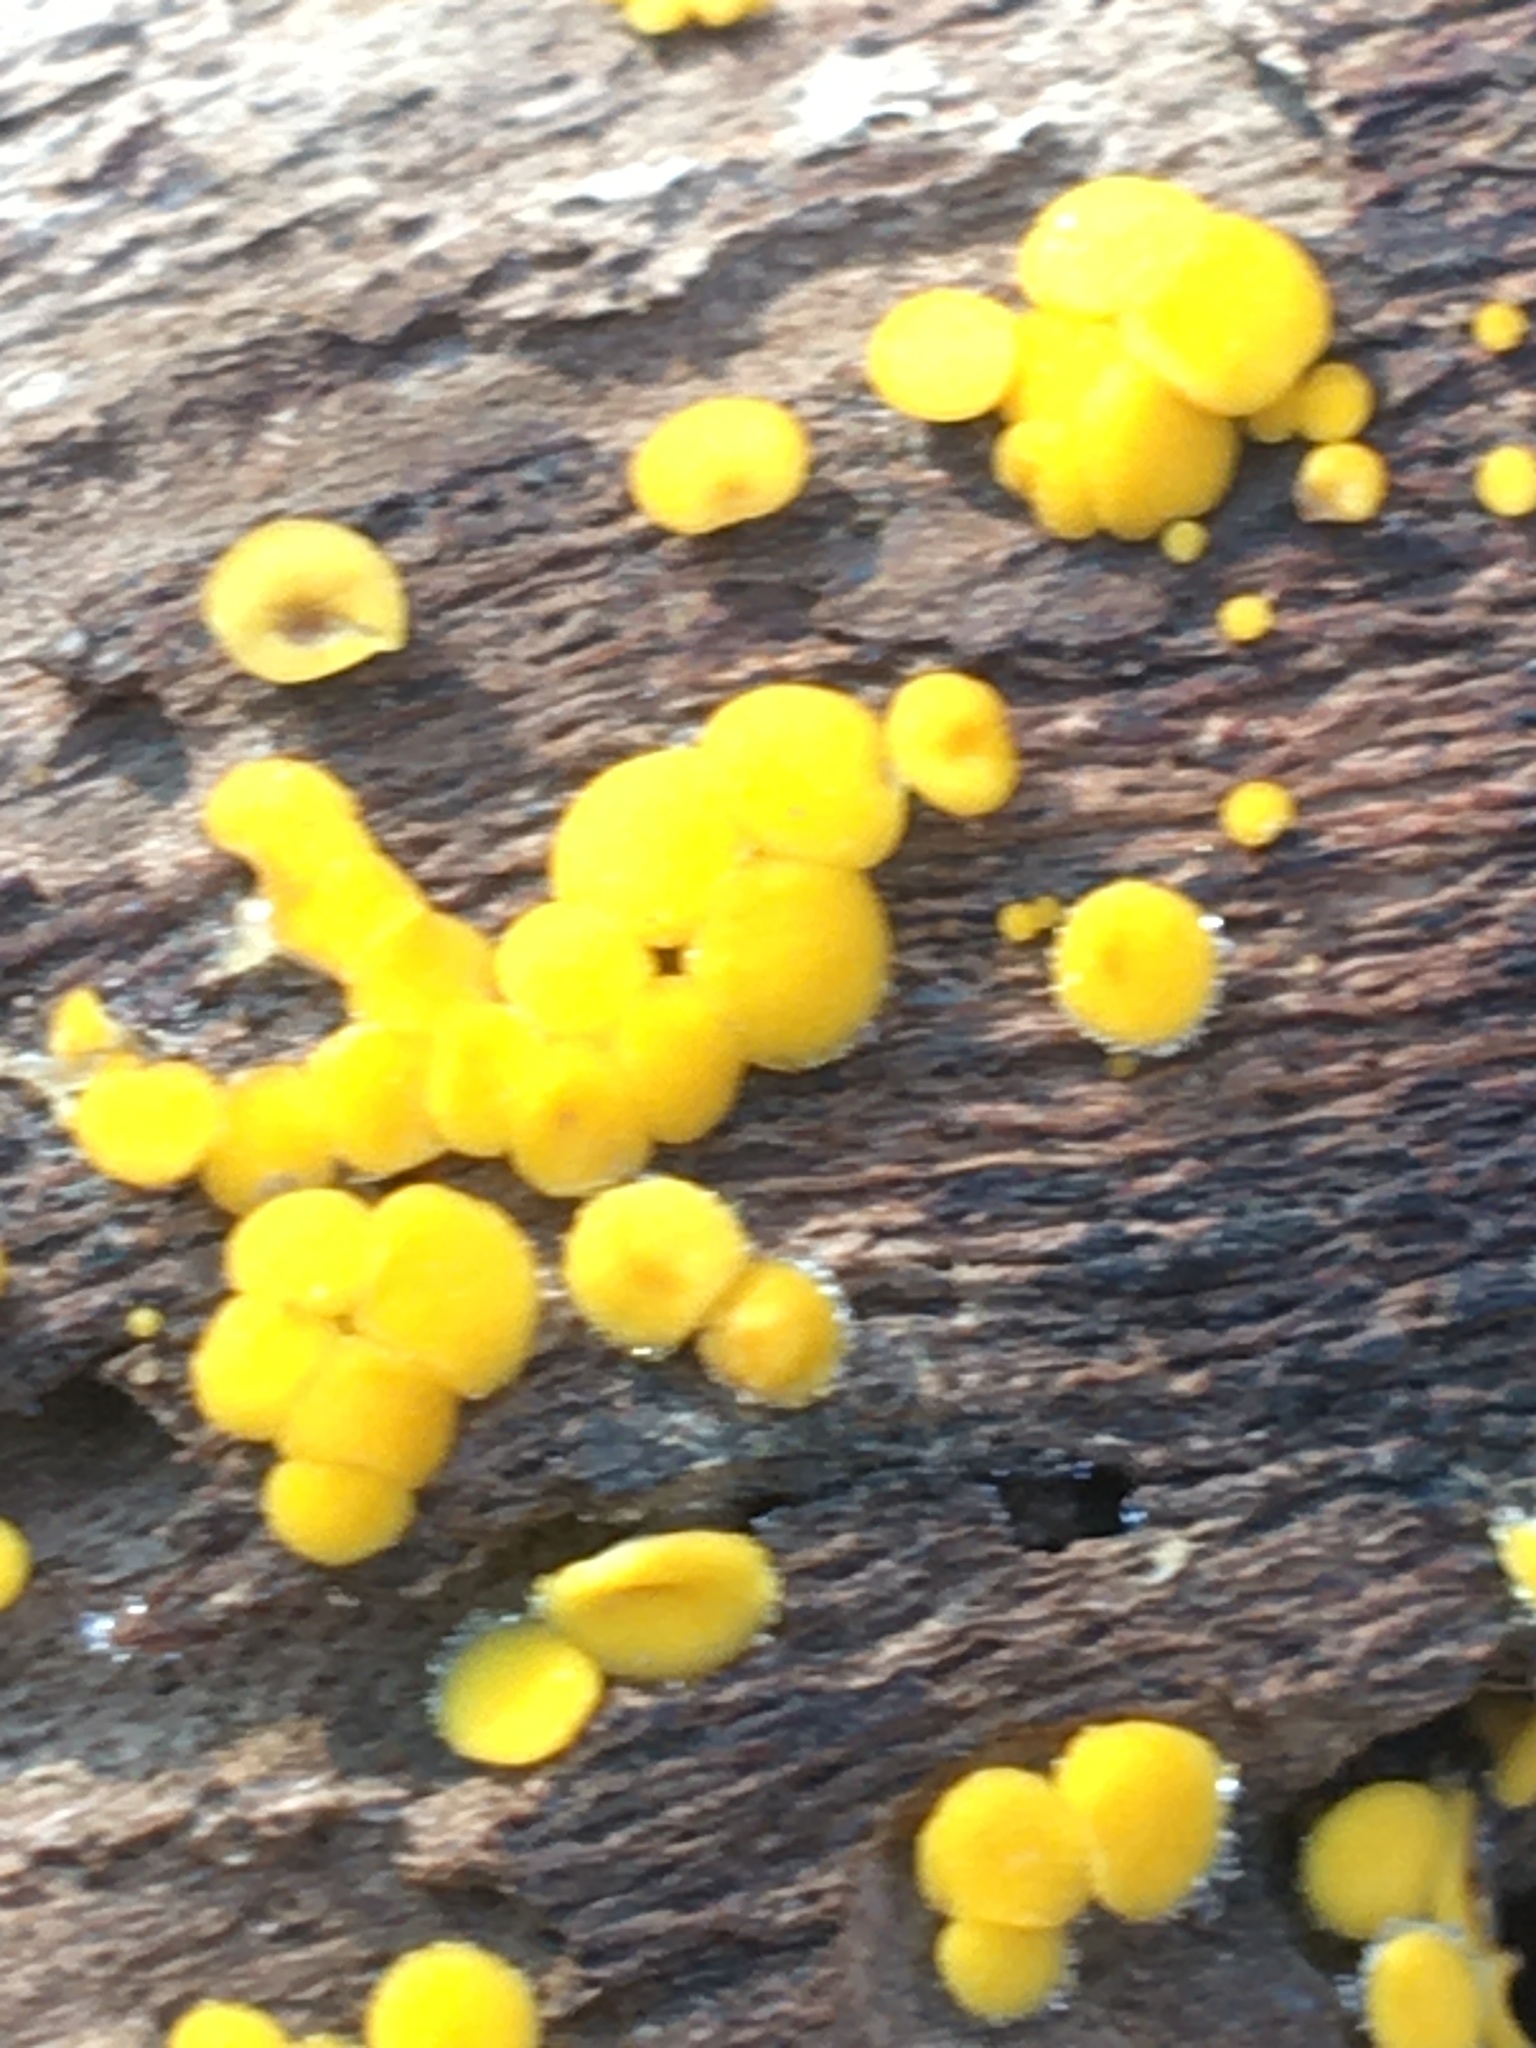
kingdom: Fungi
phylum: Ascomycota
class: Leotiomycetes
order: Helotiales
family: Pezizellaceae
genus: Calycina
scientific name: Calycina citrina
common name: Yellow fairy cups
